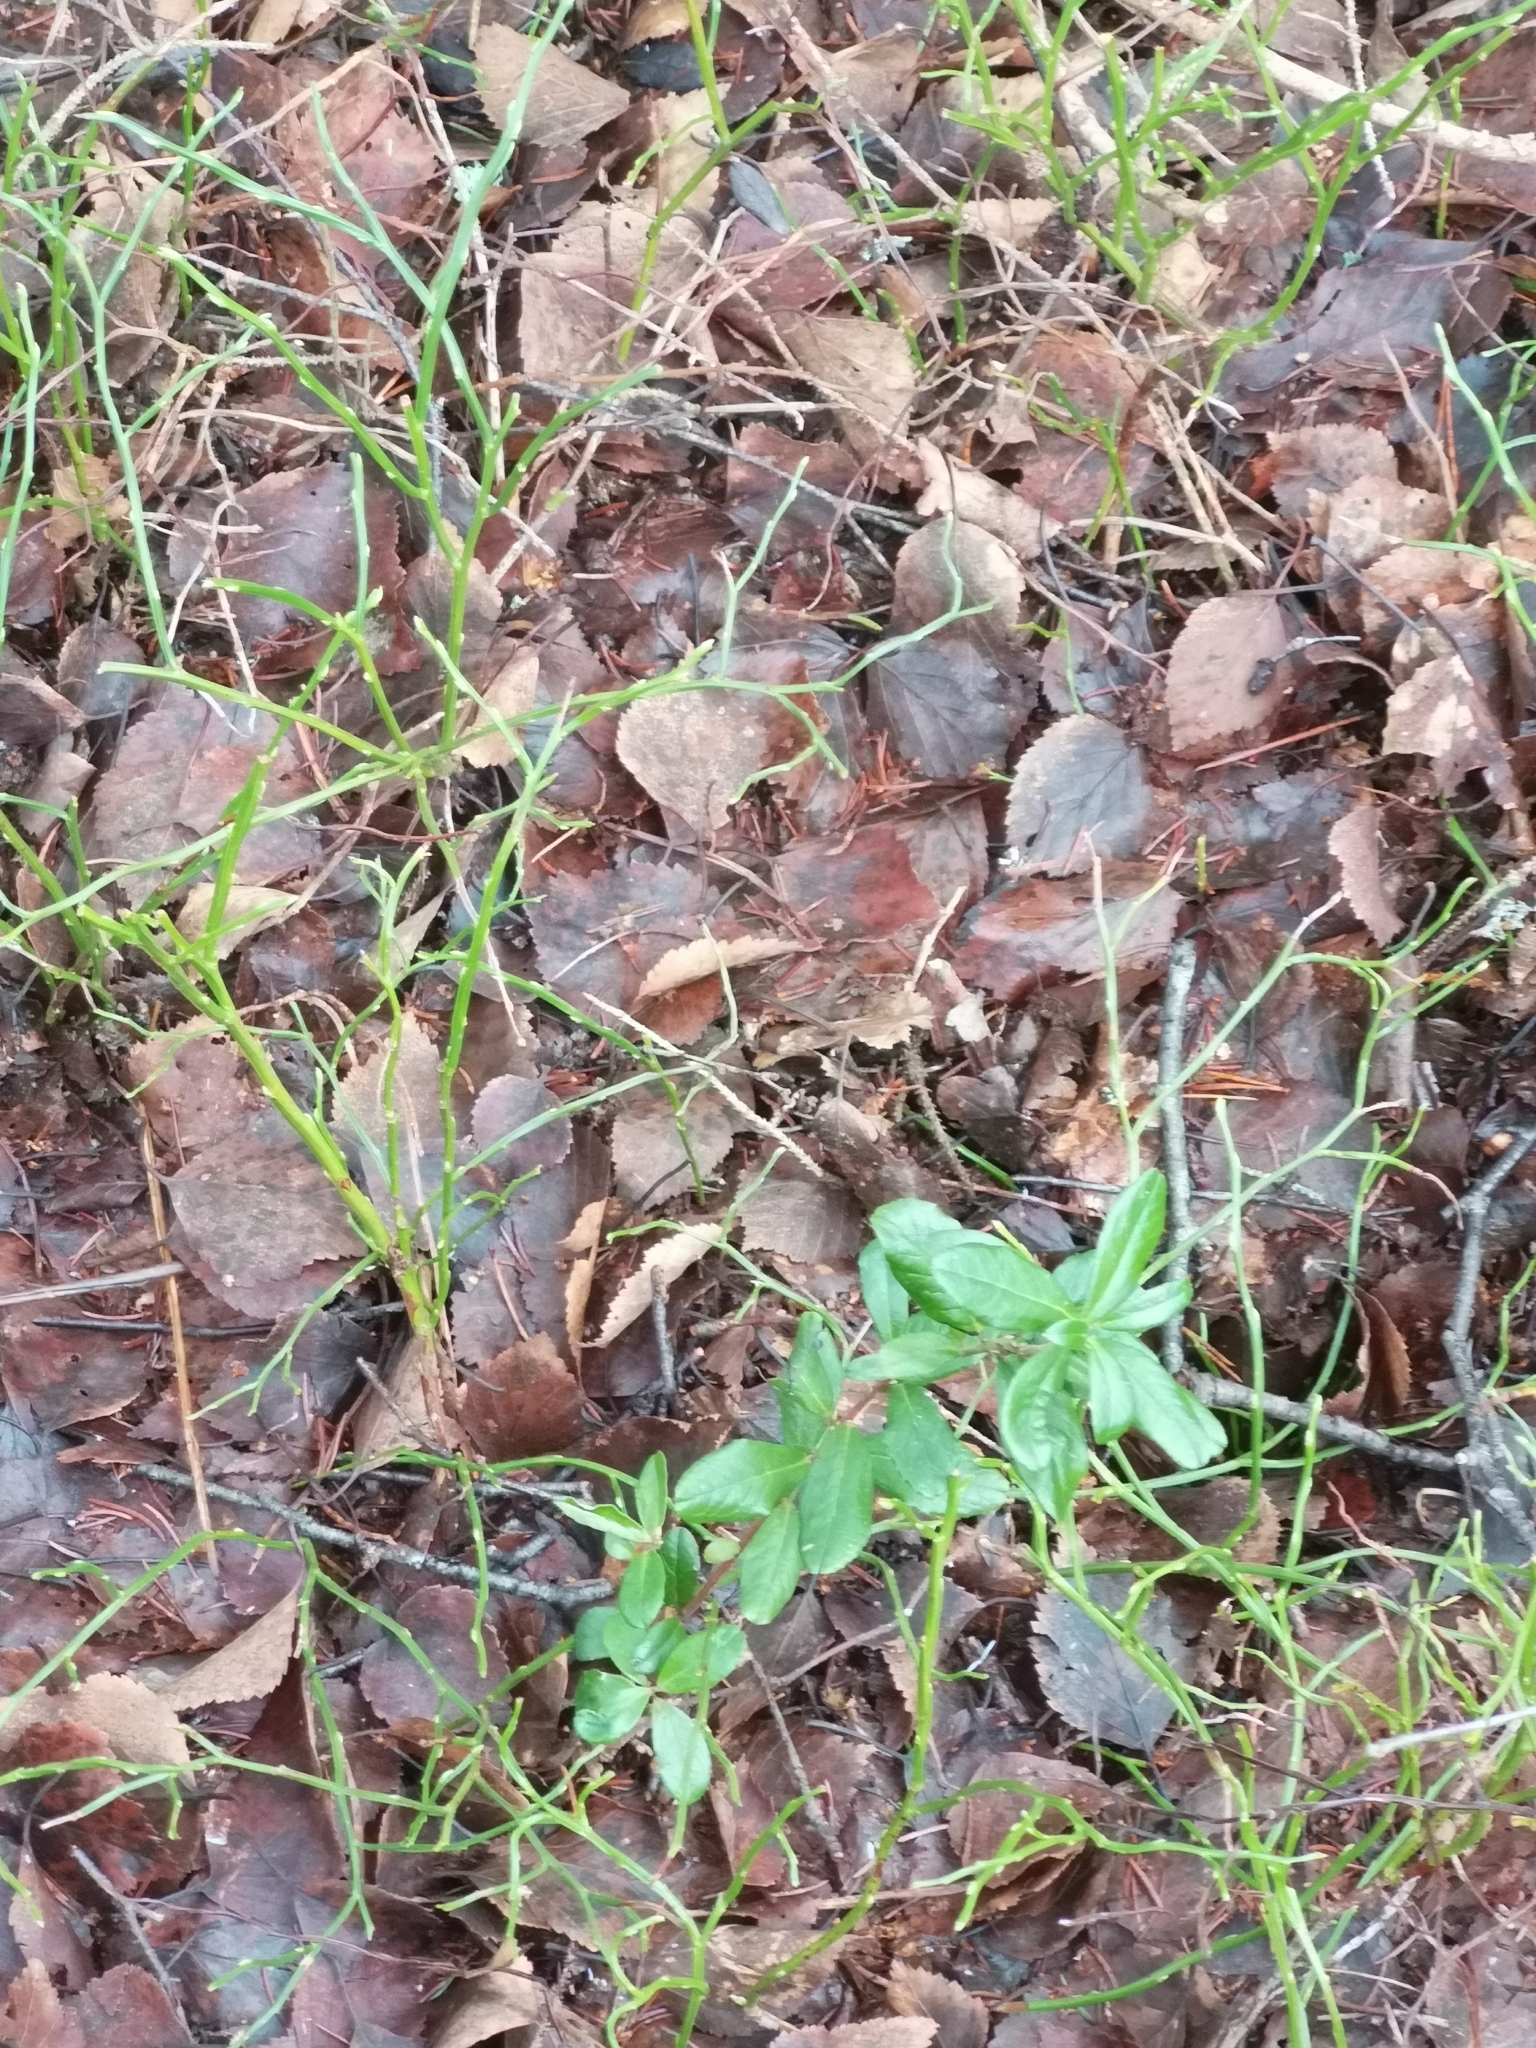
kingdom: Plantae
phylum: Tracheophyta
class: Magnoliopsida
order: Ericales
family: Ericaceae
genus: Vaccinium
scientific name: Vaccinium vitis-idaea
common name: Cowberry
